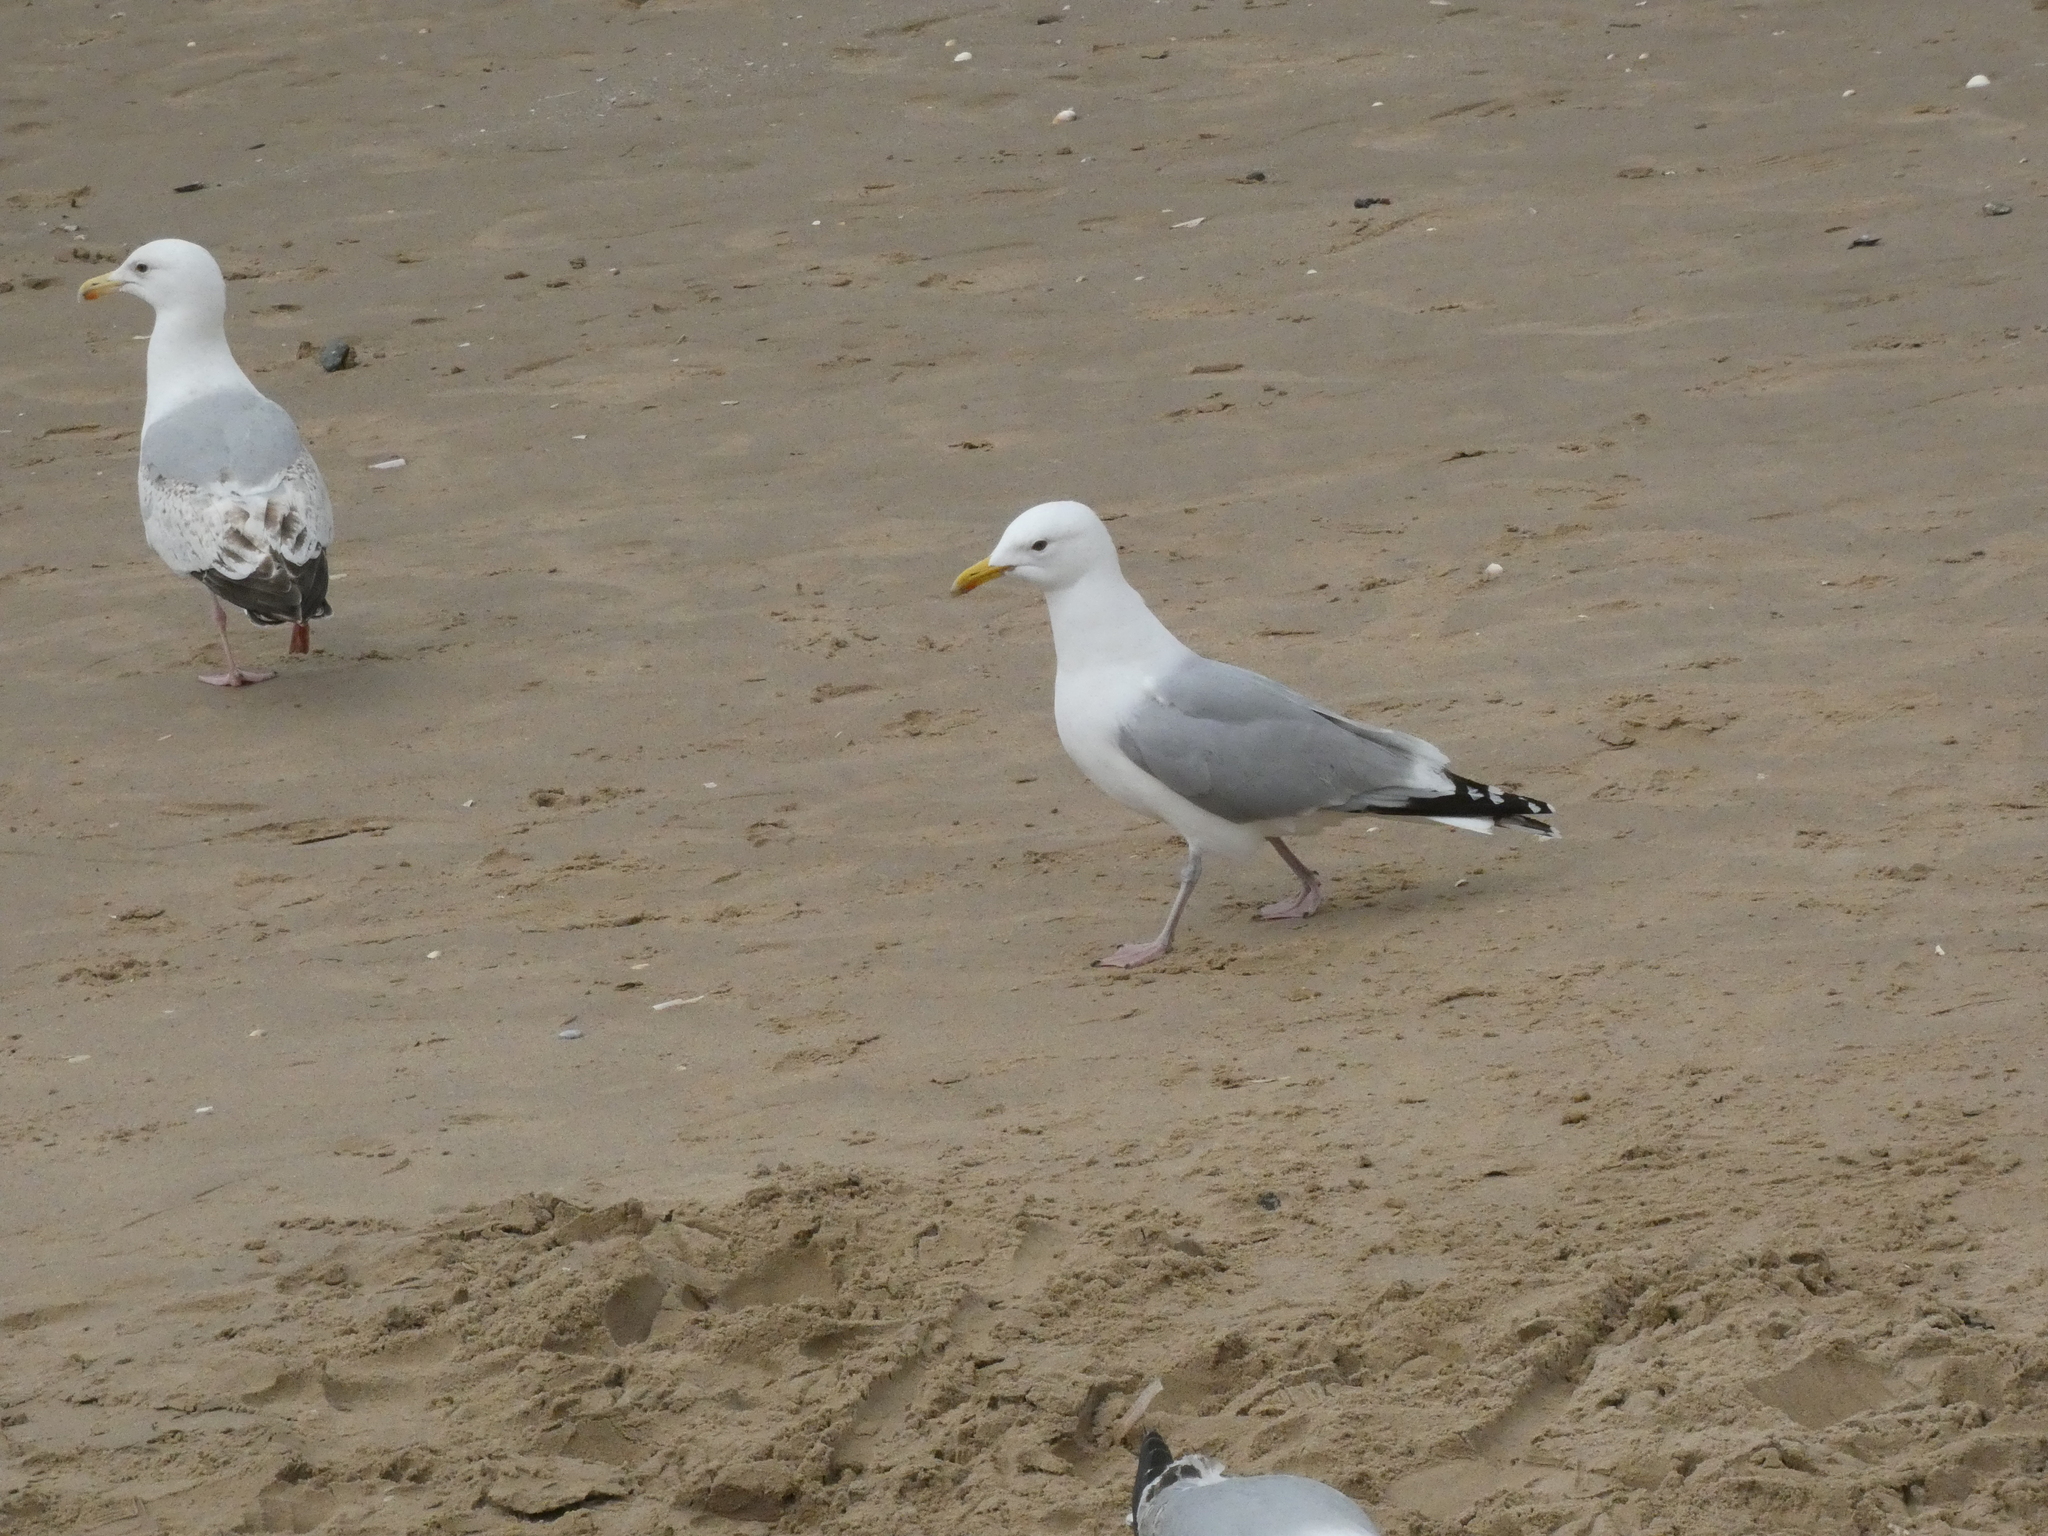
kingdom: Animalia
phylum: Chordata
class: Aves
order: Charadriiformes
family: Laridae
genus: Larus
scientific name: Larus argentatus
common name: Herring gull
